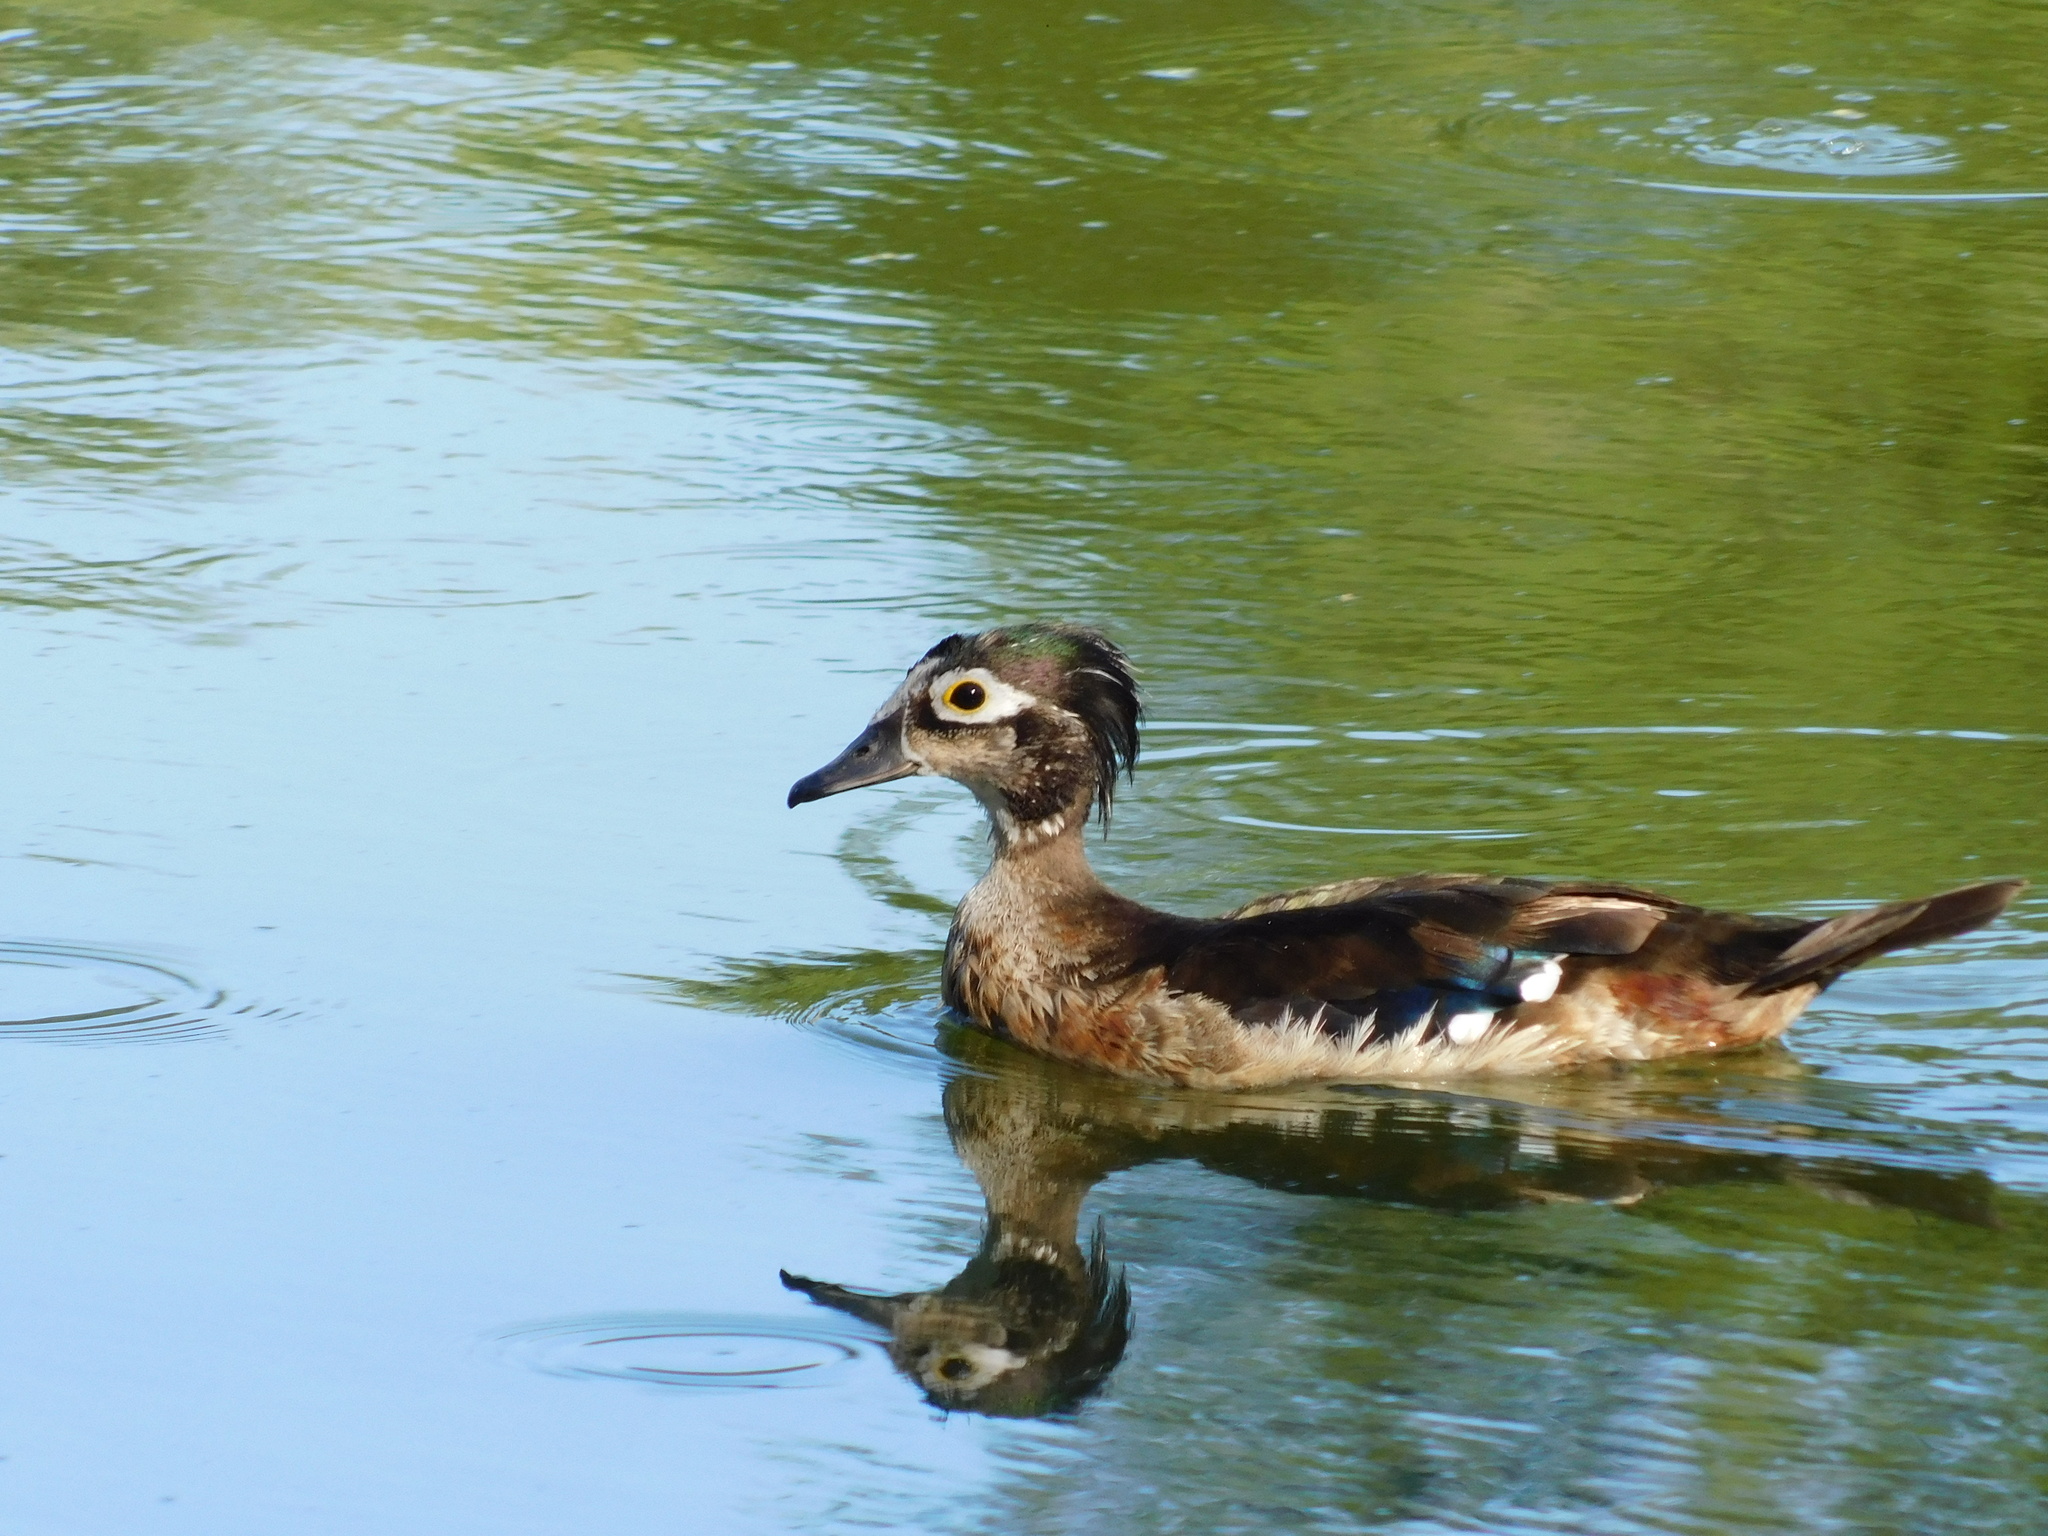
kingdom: Animalia
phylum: Chordata
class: Aves
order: Anseriformes
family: Anatidae
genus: Aix
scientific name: Aix sponsa
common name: Wood duck
